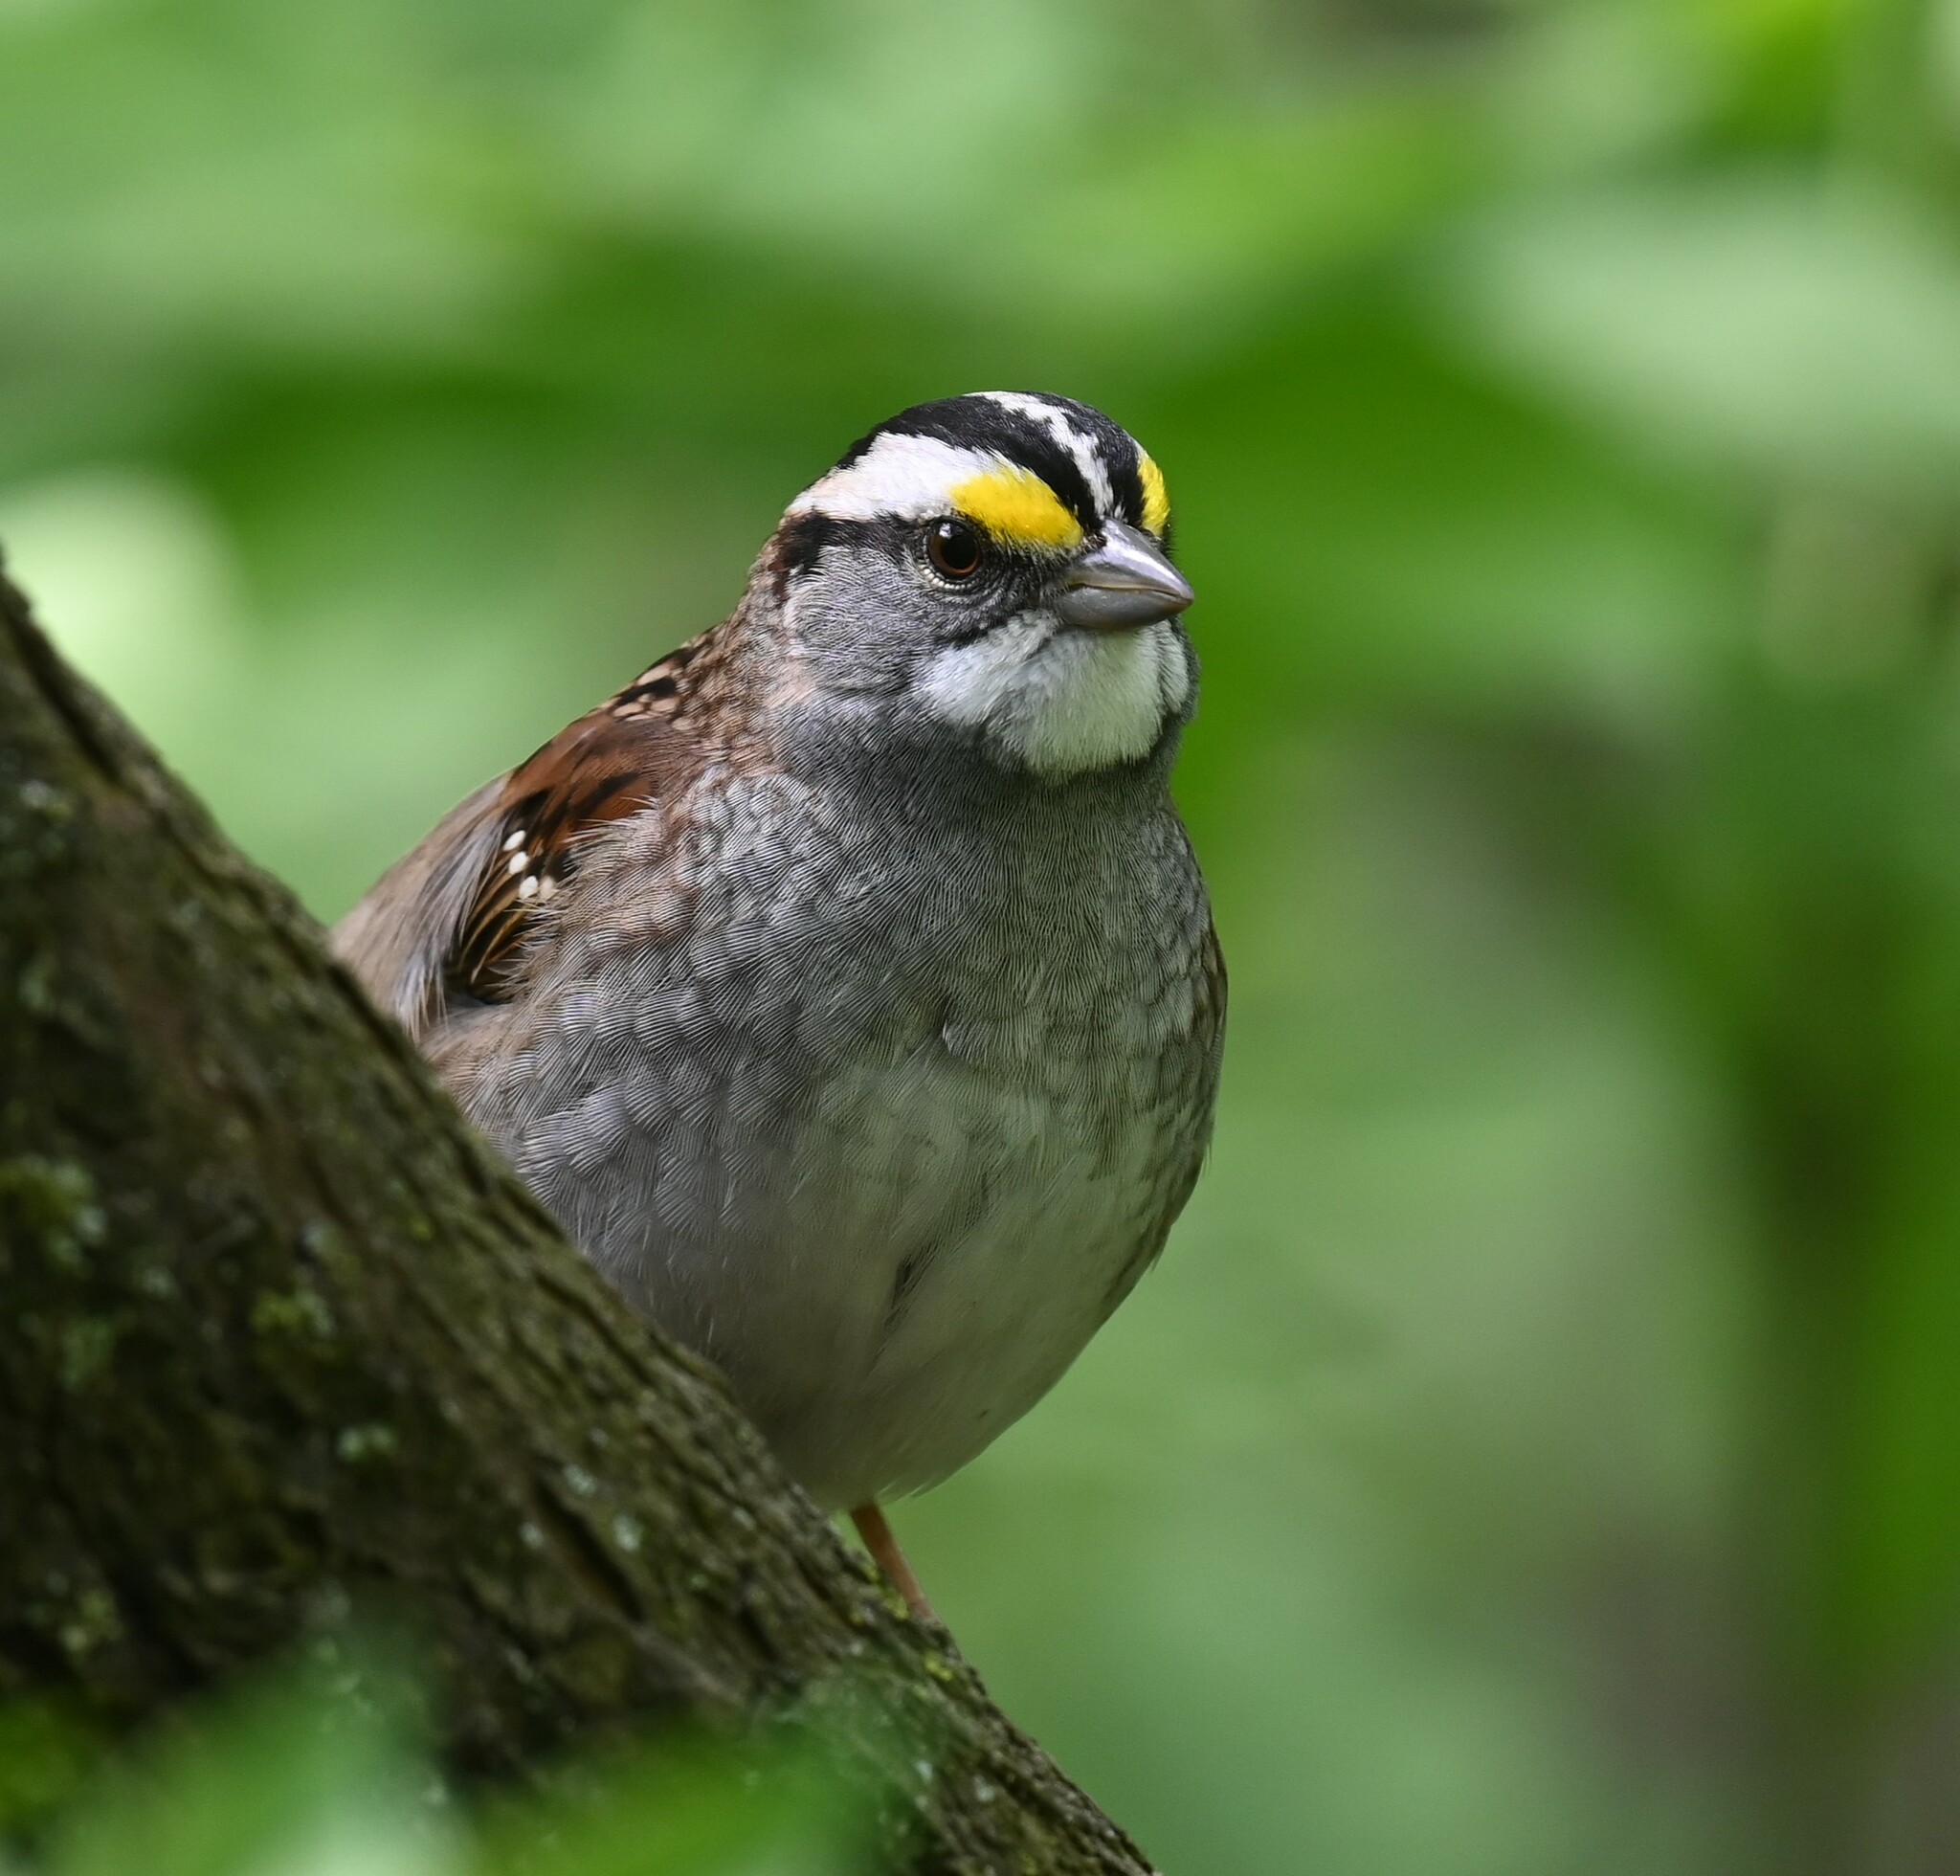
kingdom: Animalia
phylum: Chordata
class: Aves
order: Passeriformes
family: Passerellidae
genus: Zonotrichia
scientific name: Zonotrichia albicollis
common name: White-throated sparrow
